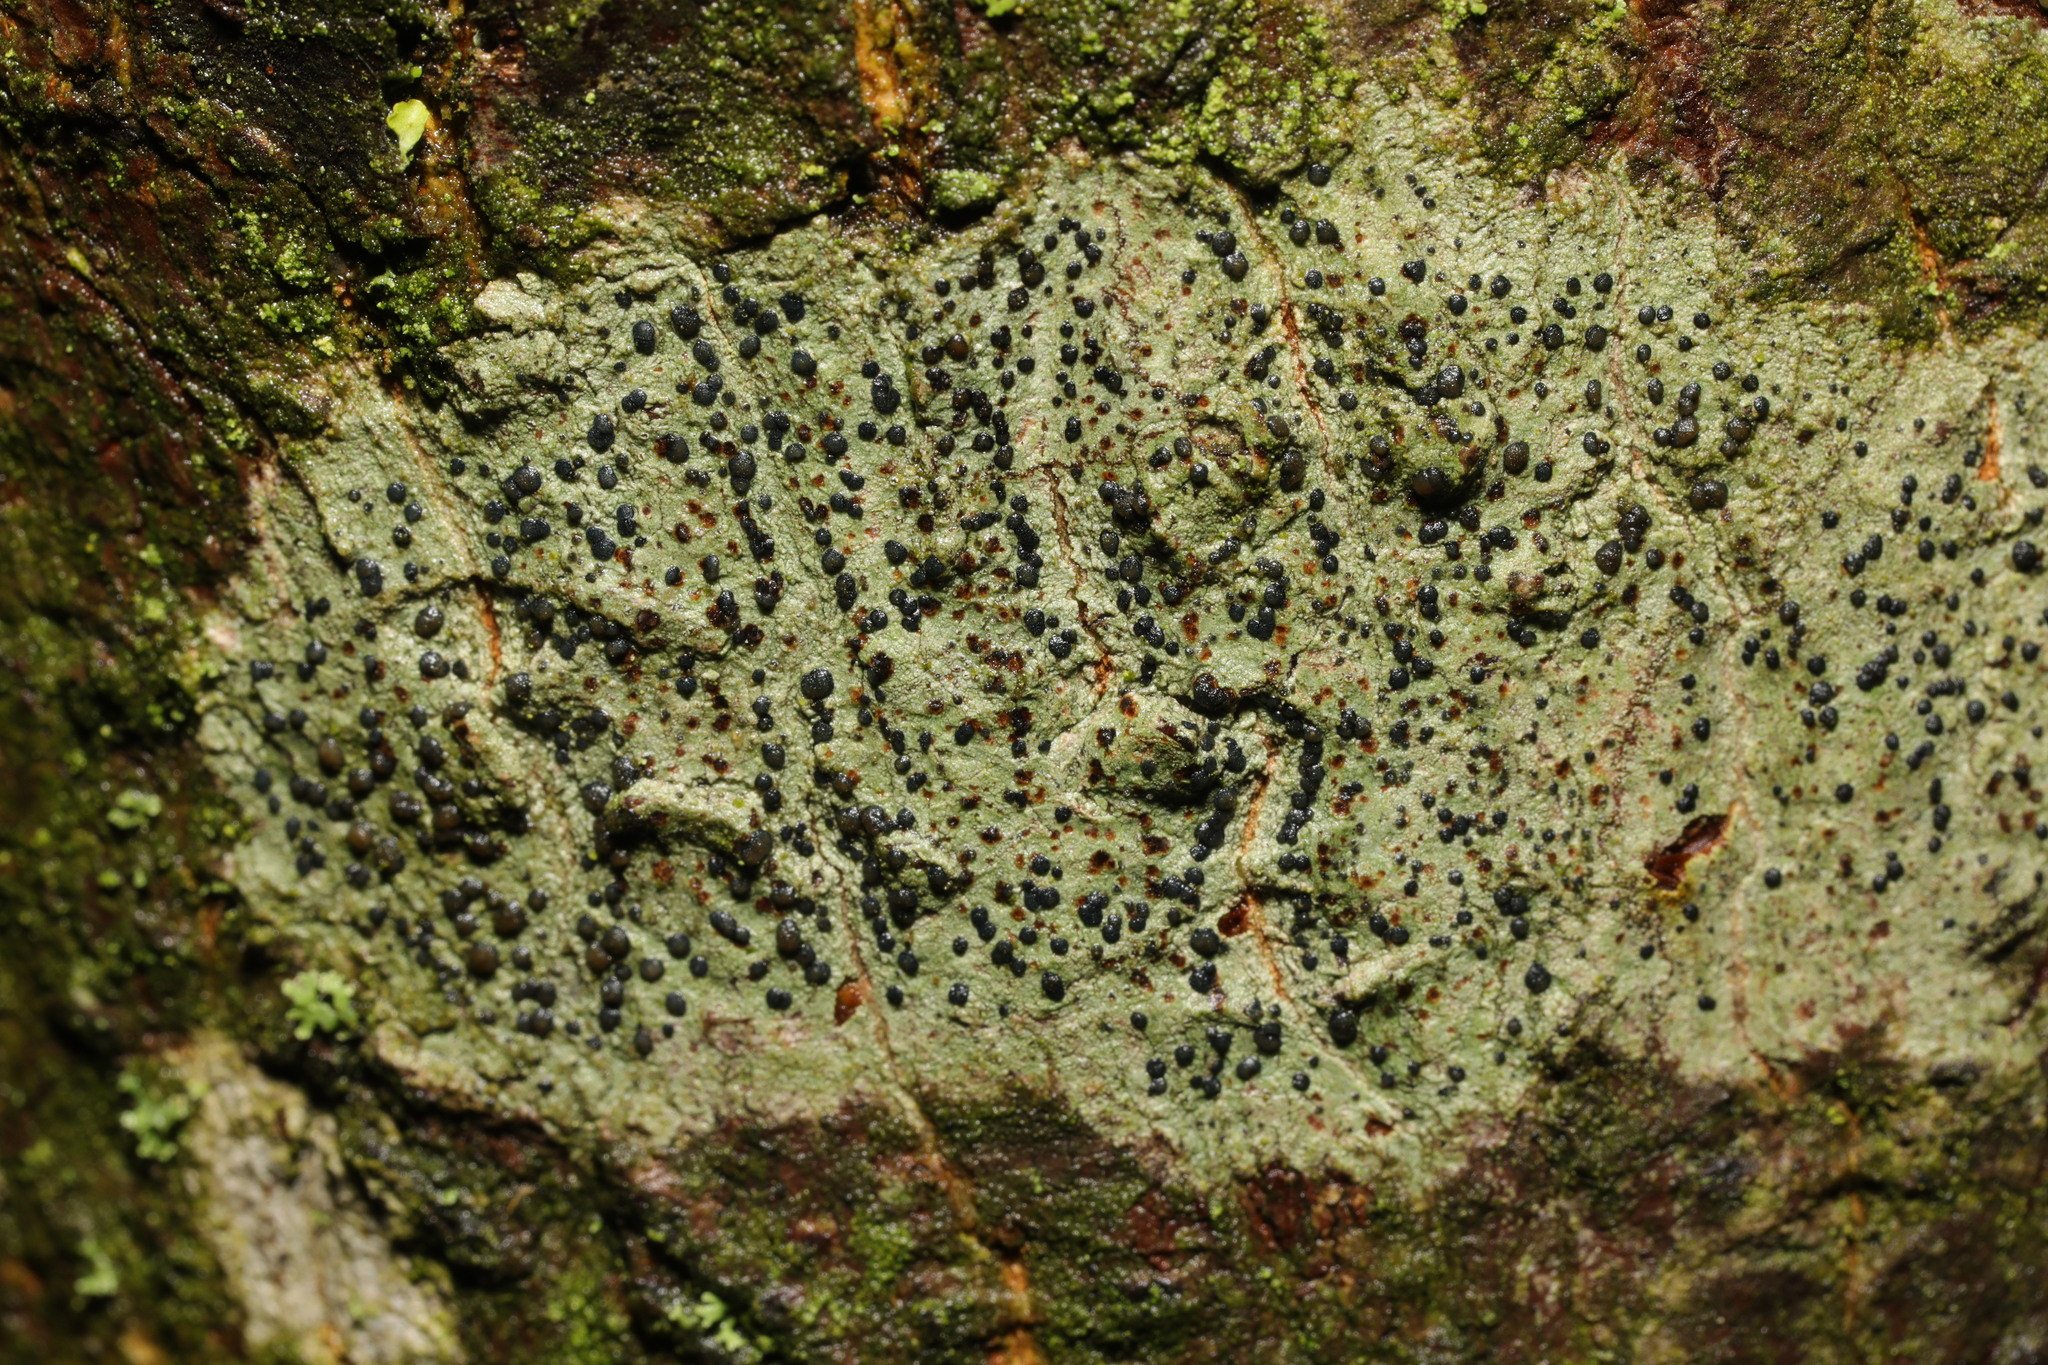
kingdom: Fungi
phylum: Ascomycota
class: Lecanoromycetes
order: Lecanorales
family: Lecanoraceae
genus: Lecidella
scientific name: Lecidella elaeochroma
